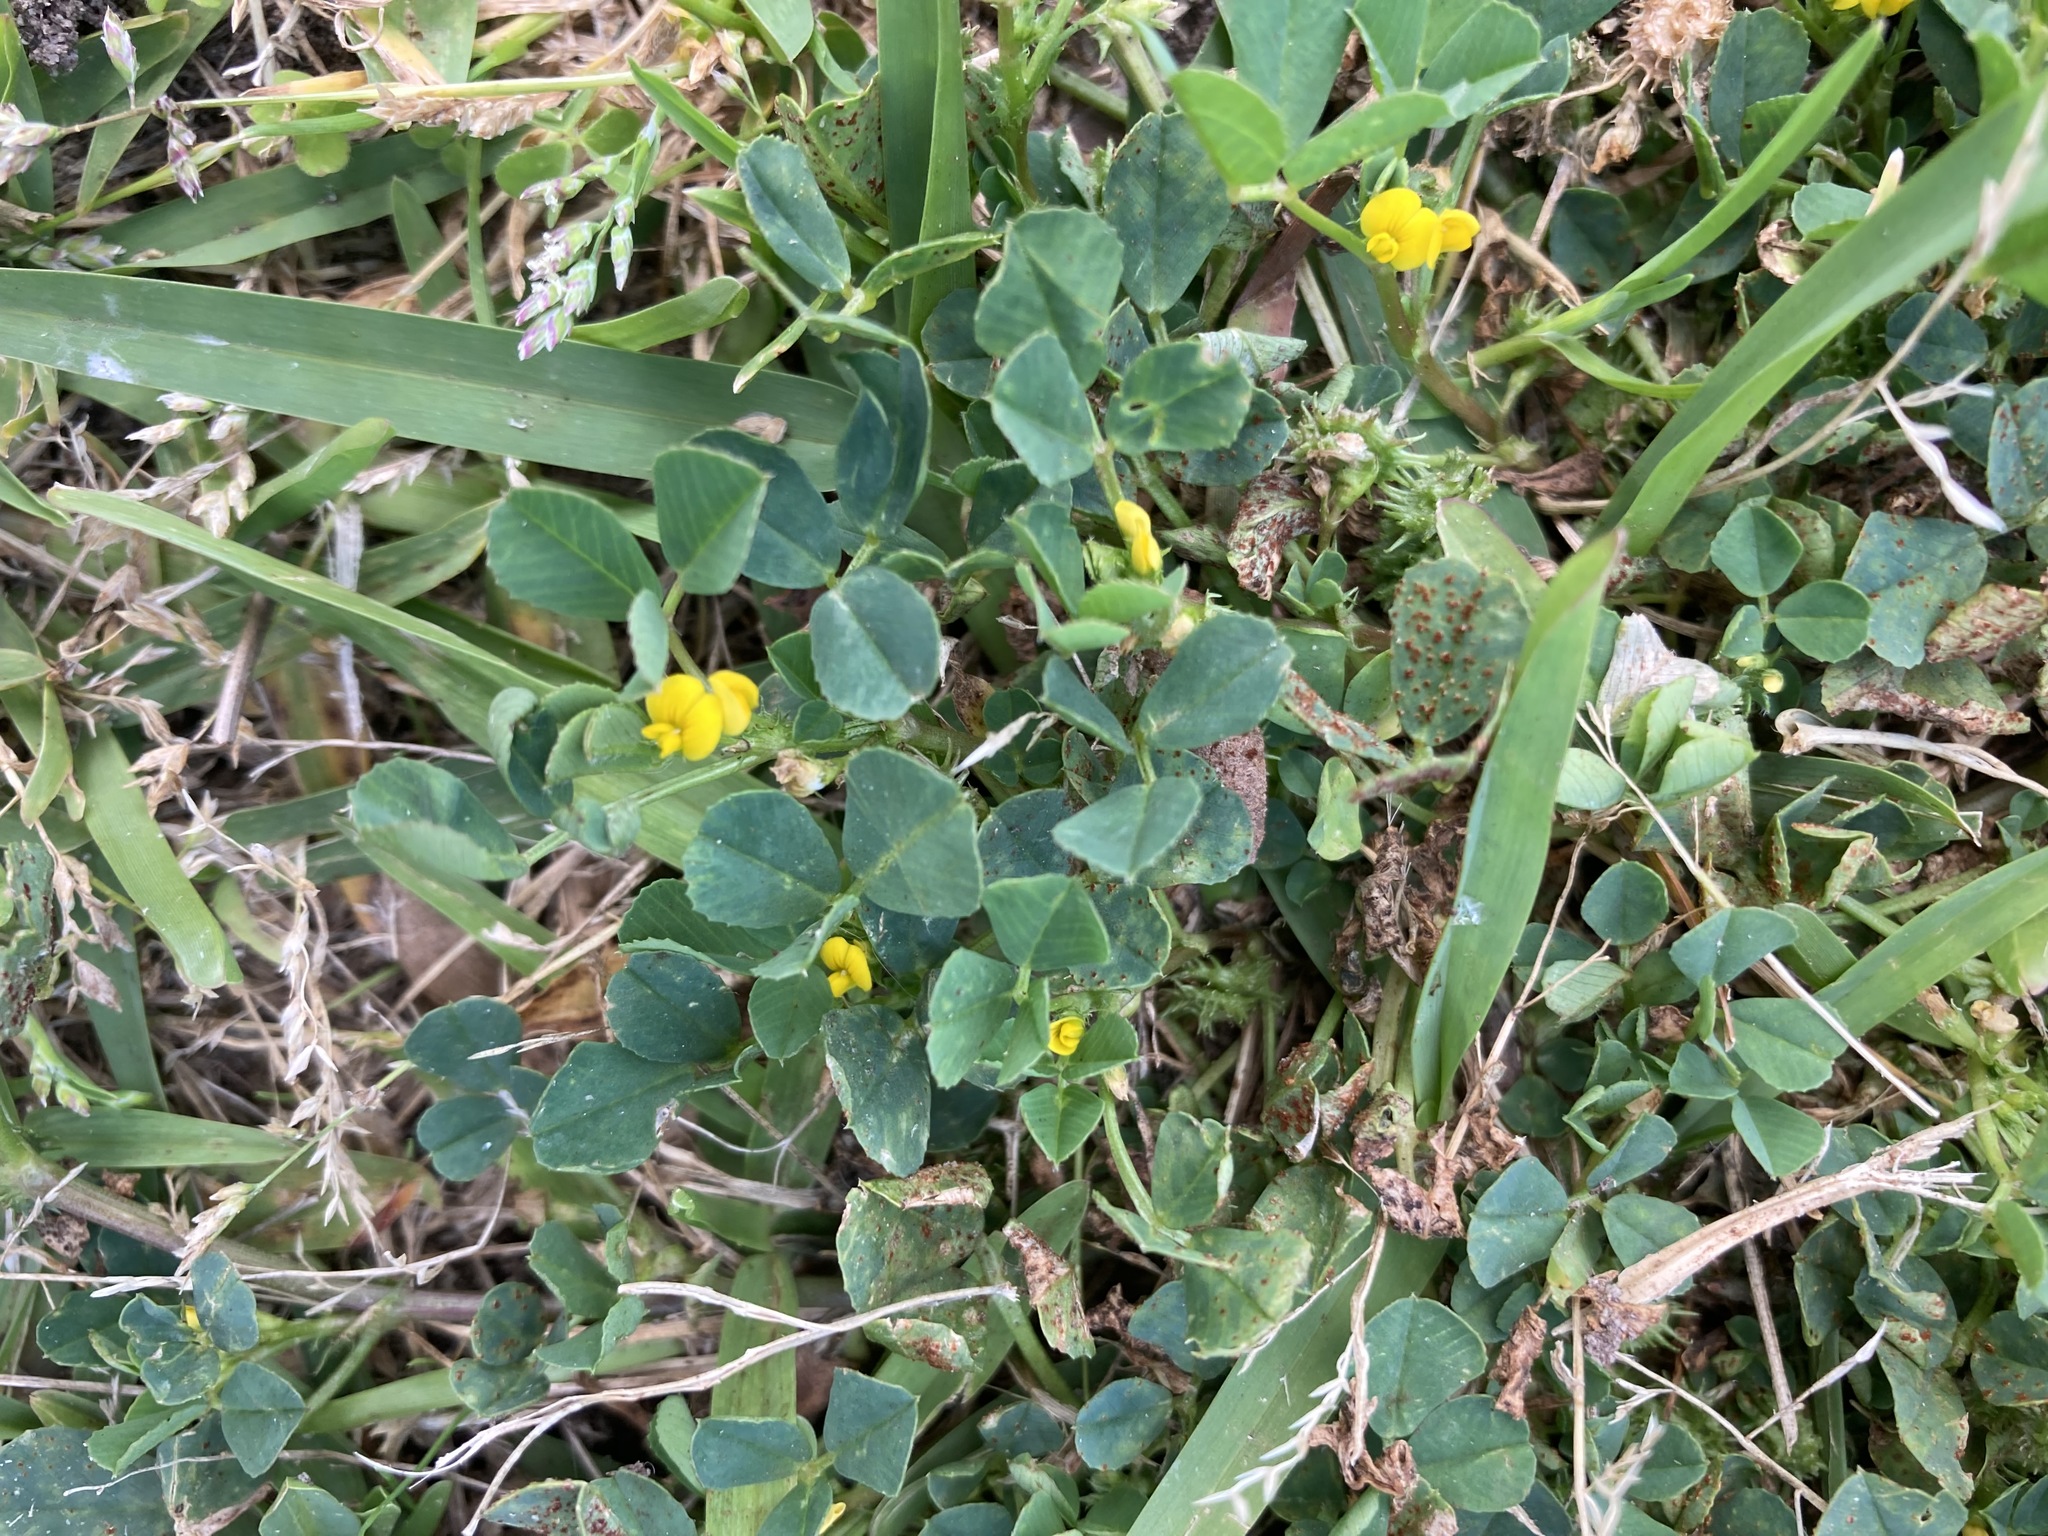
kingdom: Plantae
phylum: Tracheophyta
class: Magnoliopsida
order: Fabales
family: Fabaceae
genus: Medicago
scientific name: Medicago polymorpha
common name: Burclover
